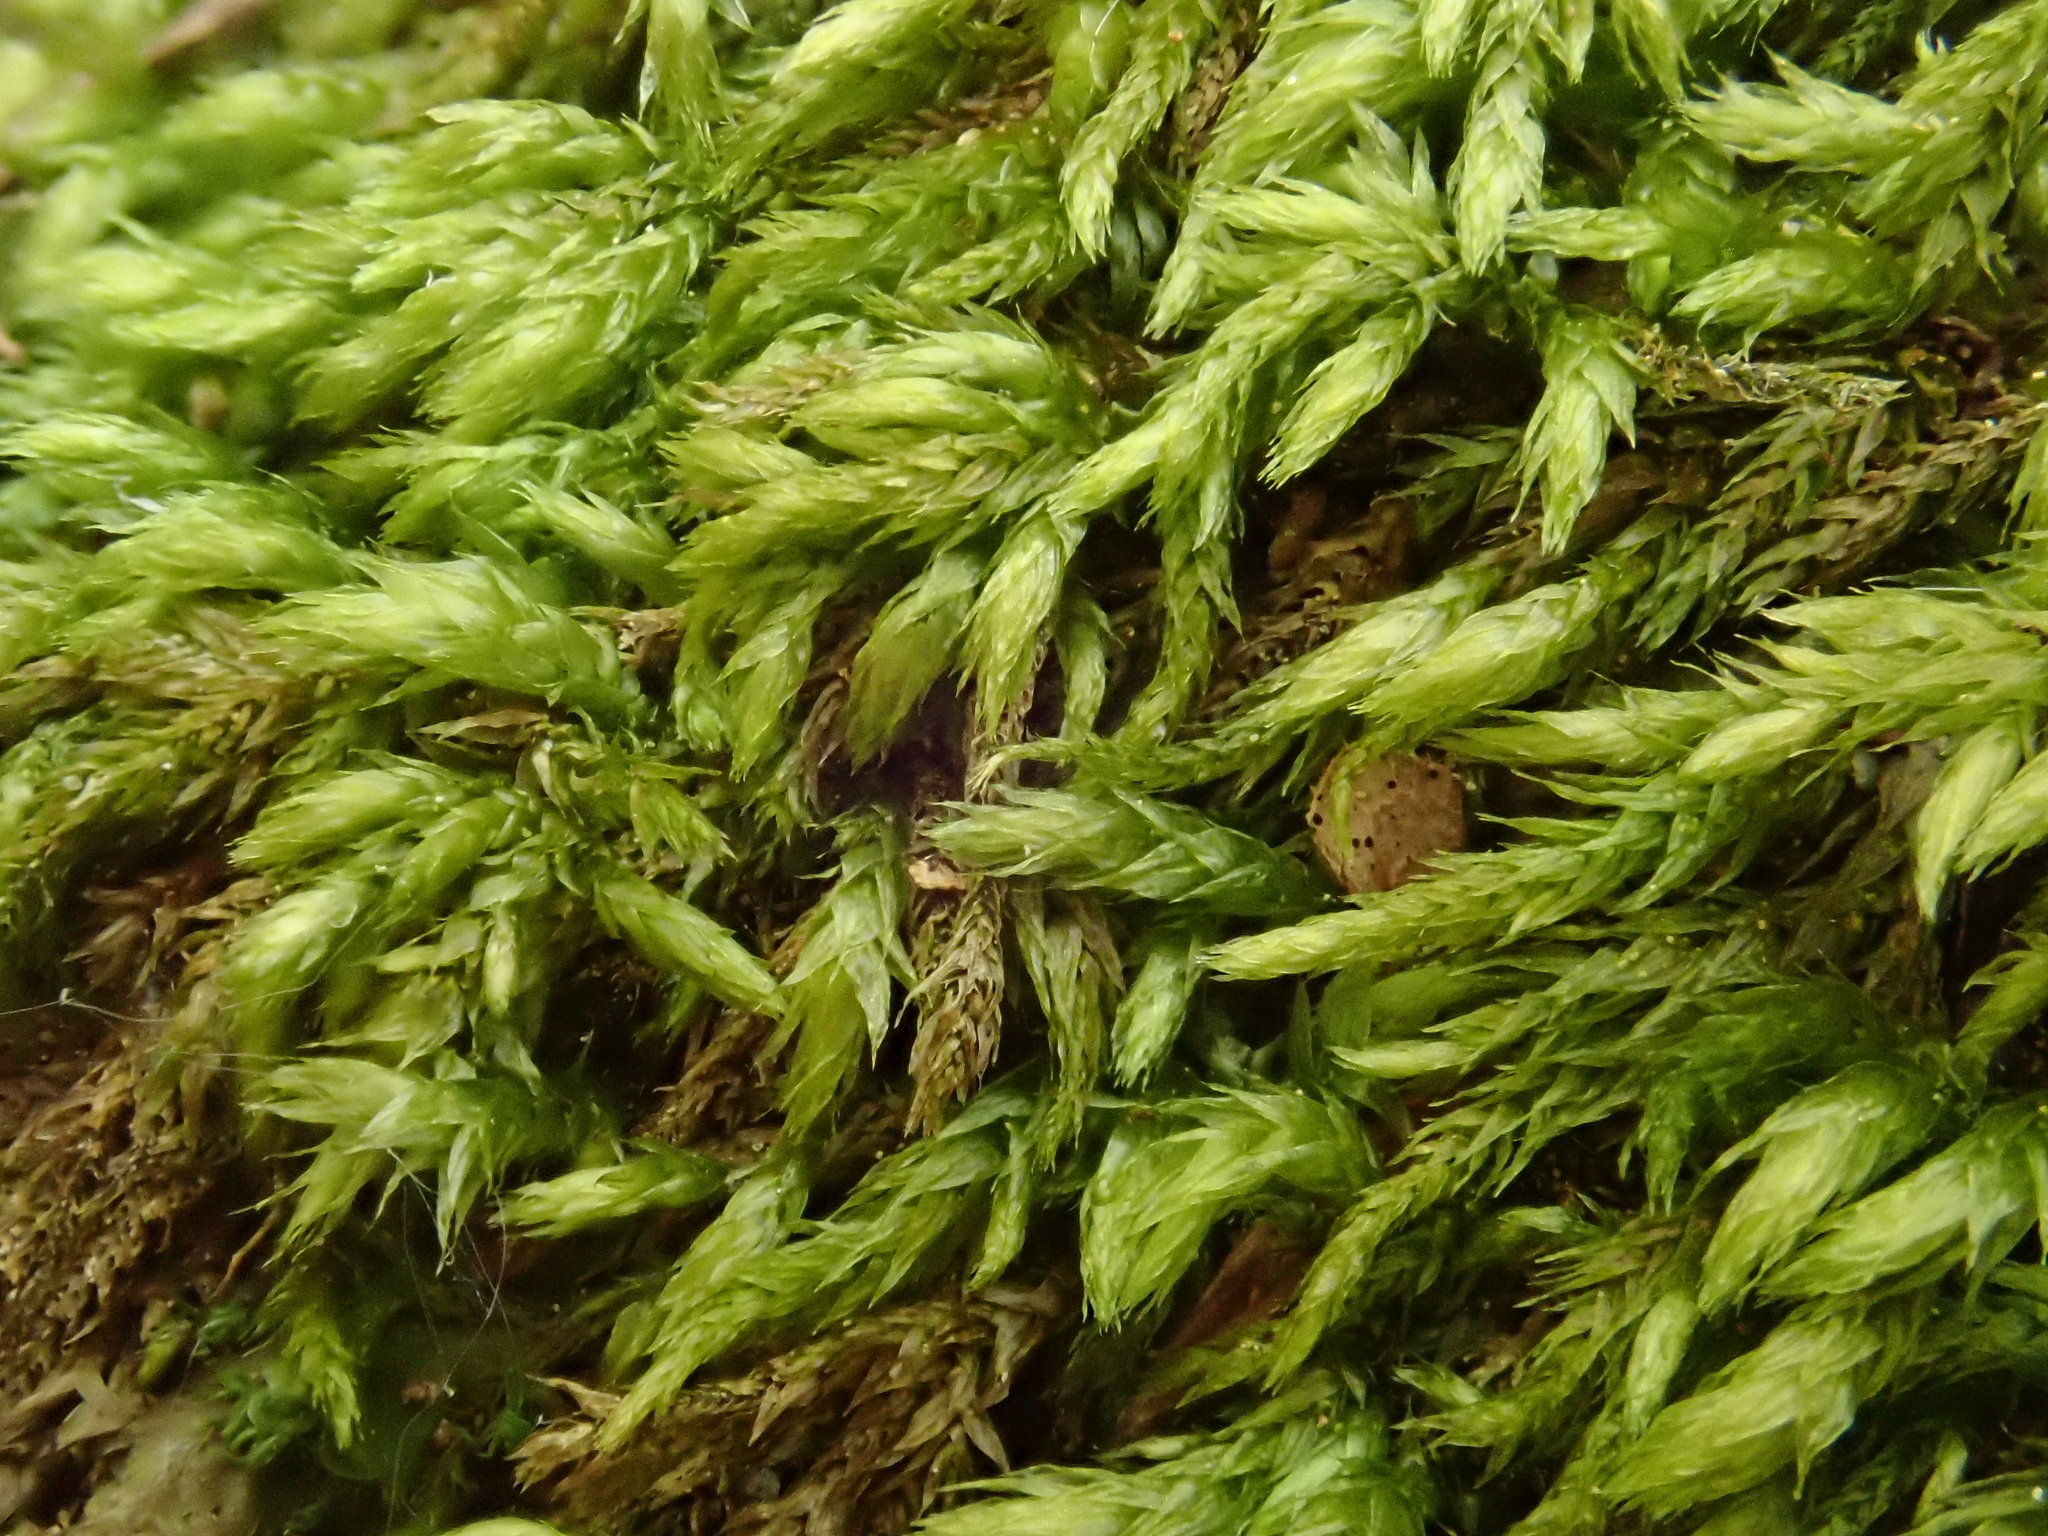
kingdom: Plantae
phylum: Bryophyta
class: Bryopsida
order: Hypnales
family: Brachytheciaceae
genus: Plasteurhynchium
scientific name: Plasteurhynchium striatulum
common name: Lesser striated feather-moss
